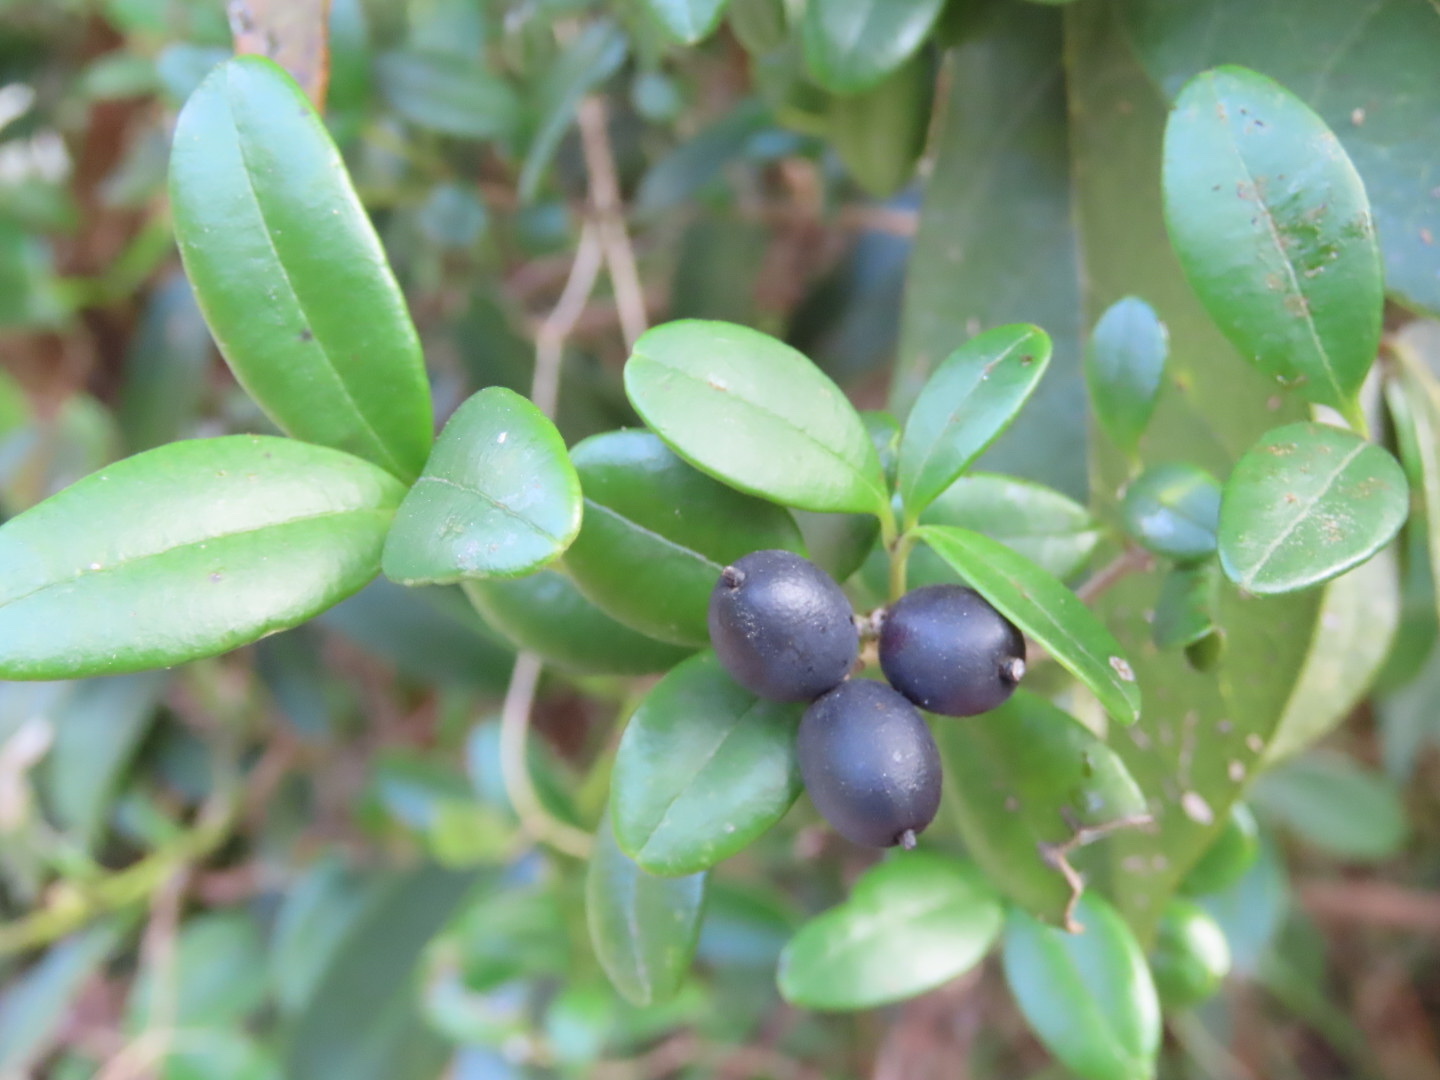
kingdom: Plantae
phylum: Tracheophyta
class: Magnoliopsida
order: Gentianales
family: Apocynaceae
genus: Alyxia
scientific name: Alyxia sinensis
